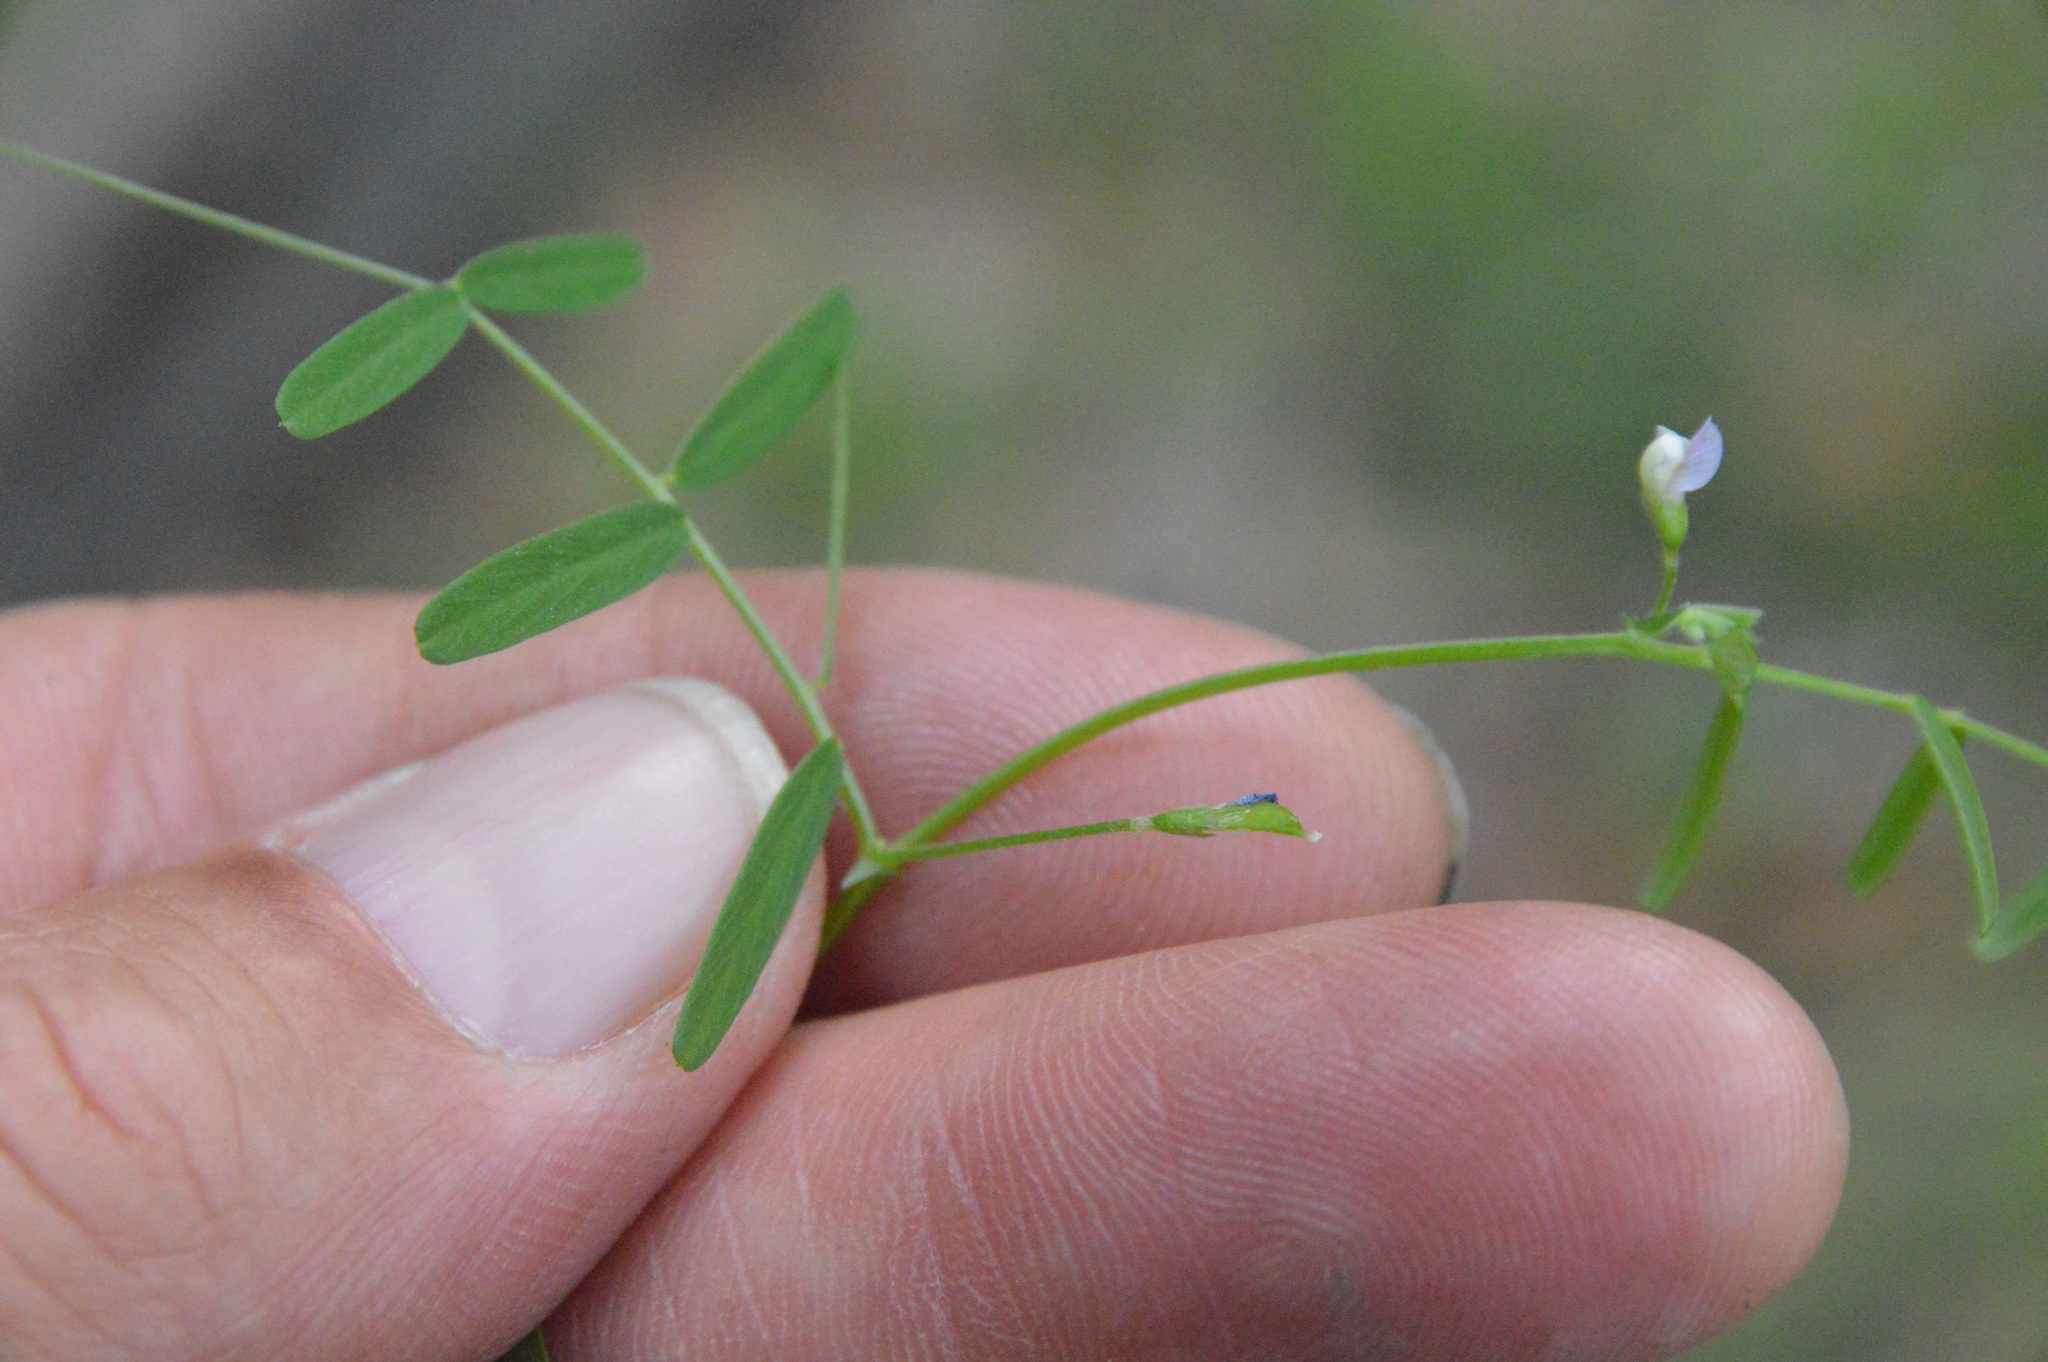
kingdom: Plantae
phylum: Tracheophyta
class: Magnoliopsida
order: Fabales
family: Fabaceae
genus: Vicia
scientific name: Vicia minutiflora
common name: Pygmy-flower vetch
